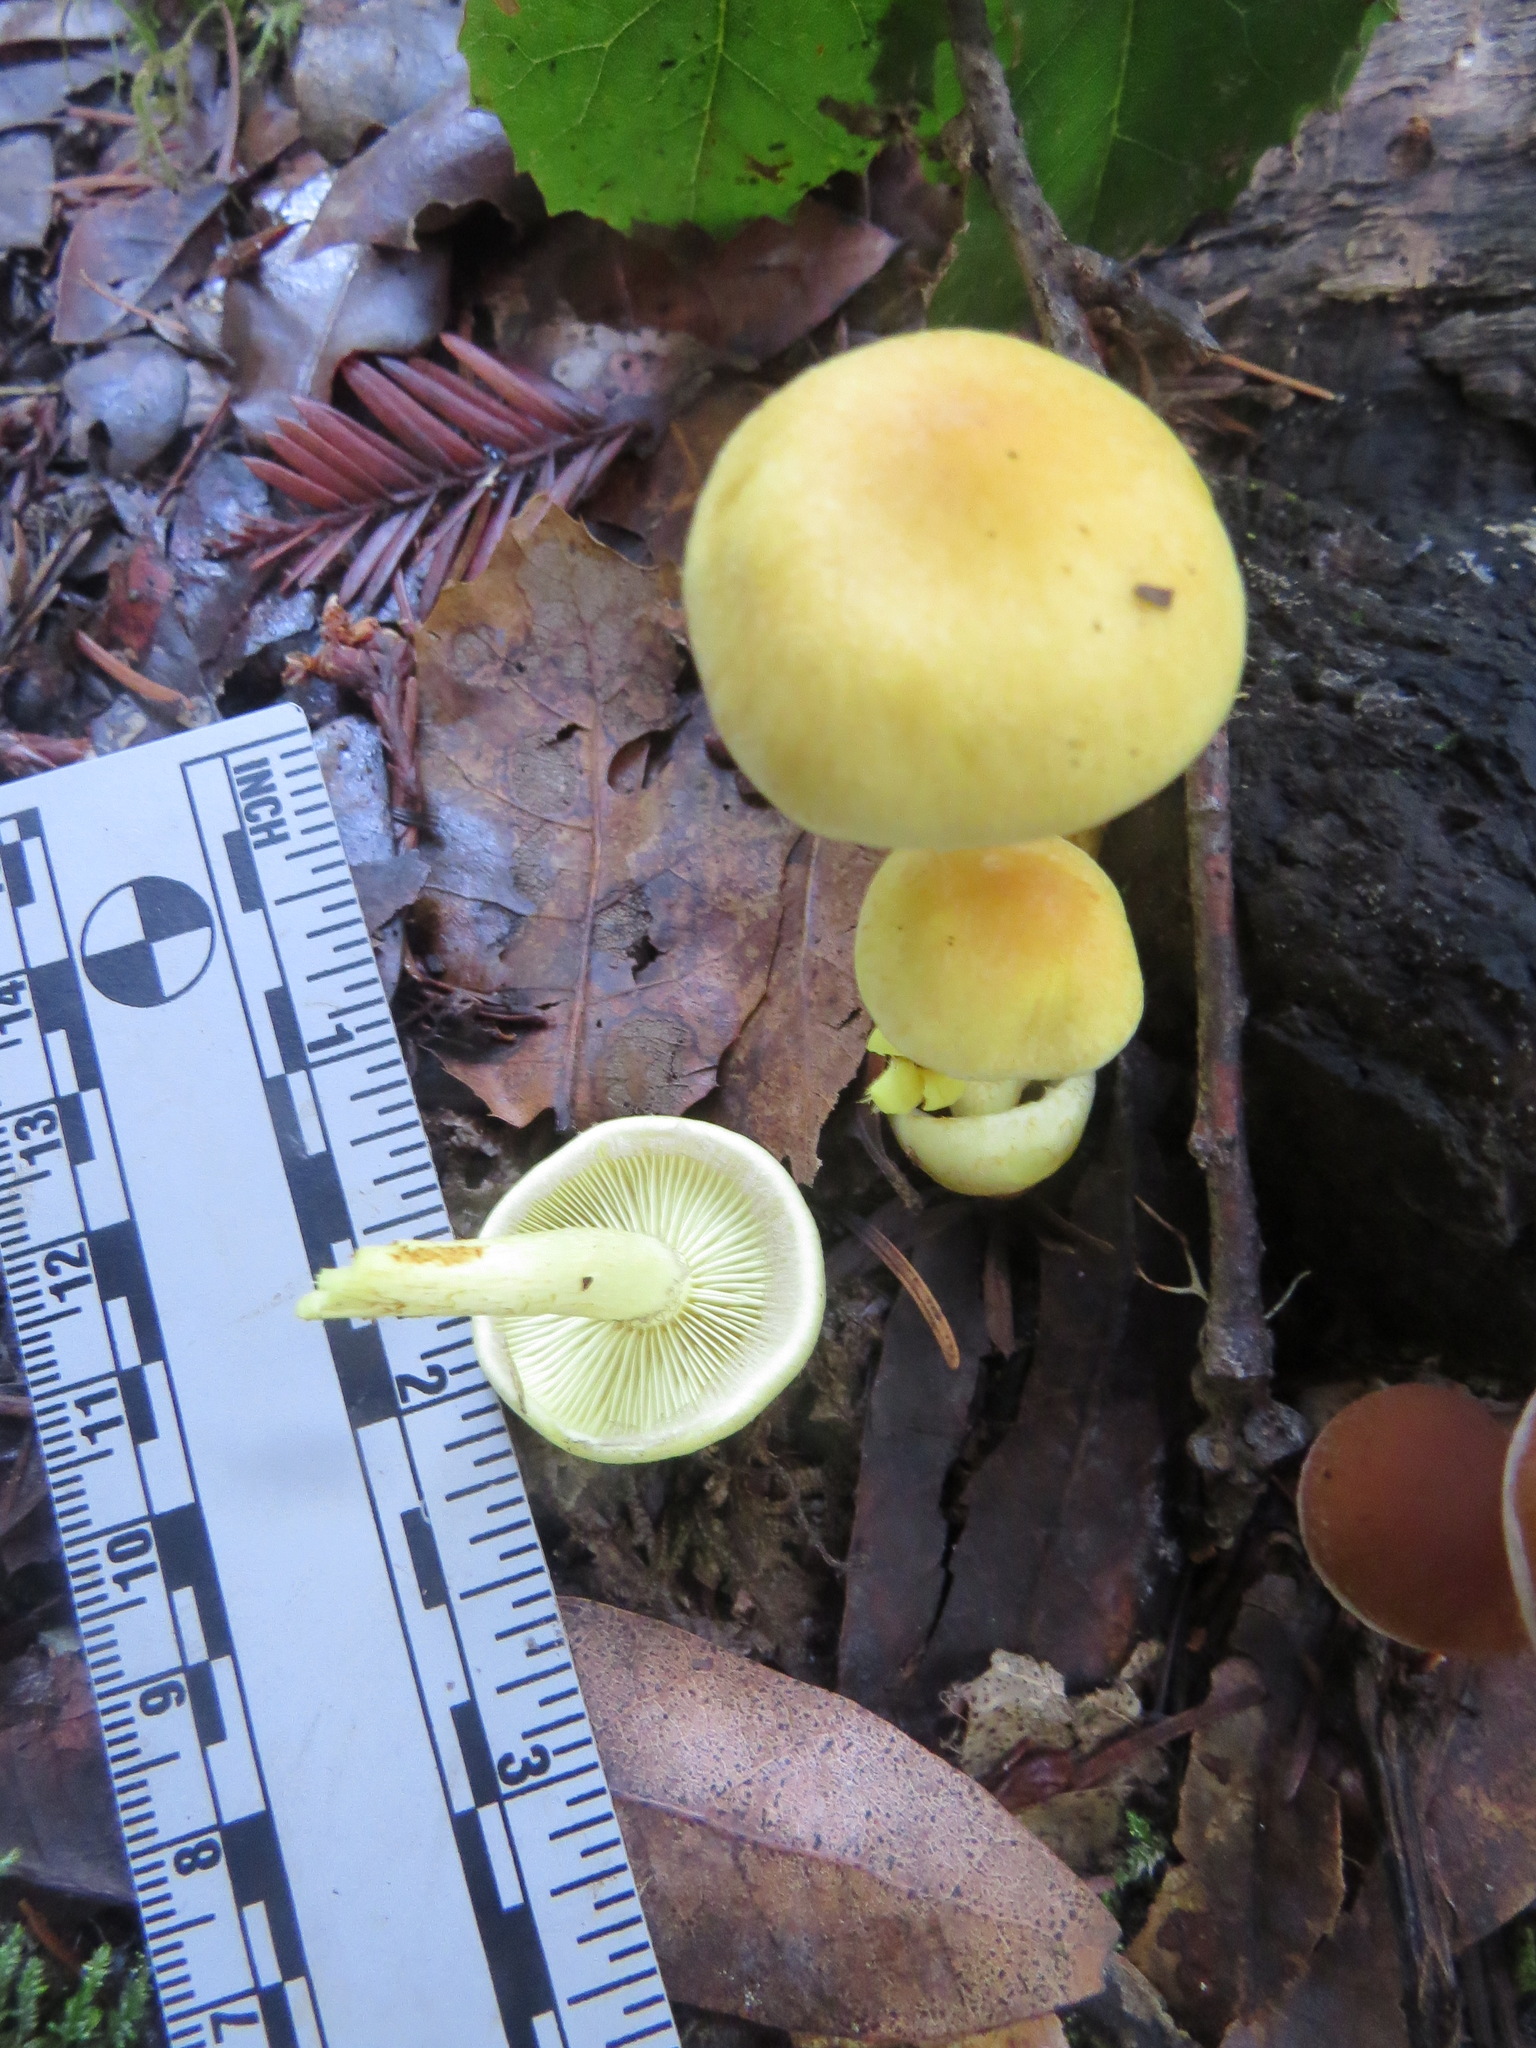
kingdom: Fungi
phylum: Basidiomycota
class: Agaricomycetes
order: Agaricales
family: Strophariaceae
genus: Hypholoma
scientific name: Hypholoma fasciculare
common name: Sulphur tuft
